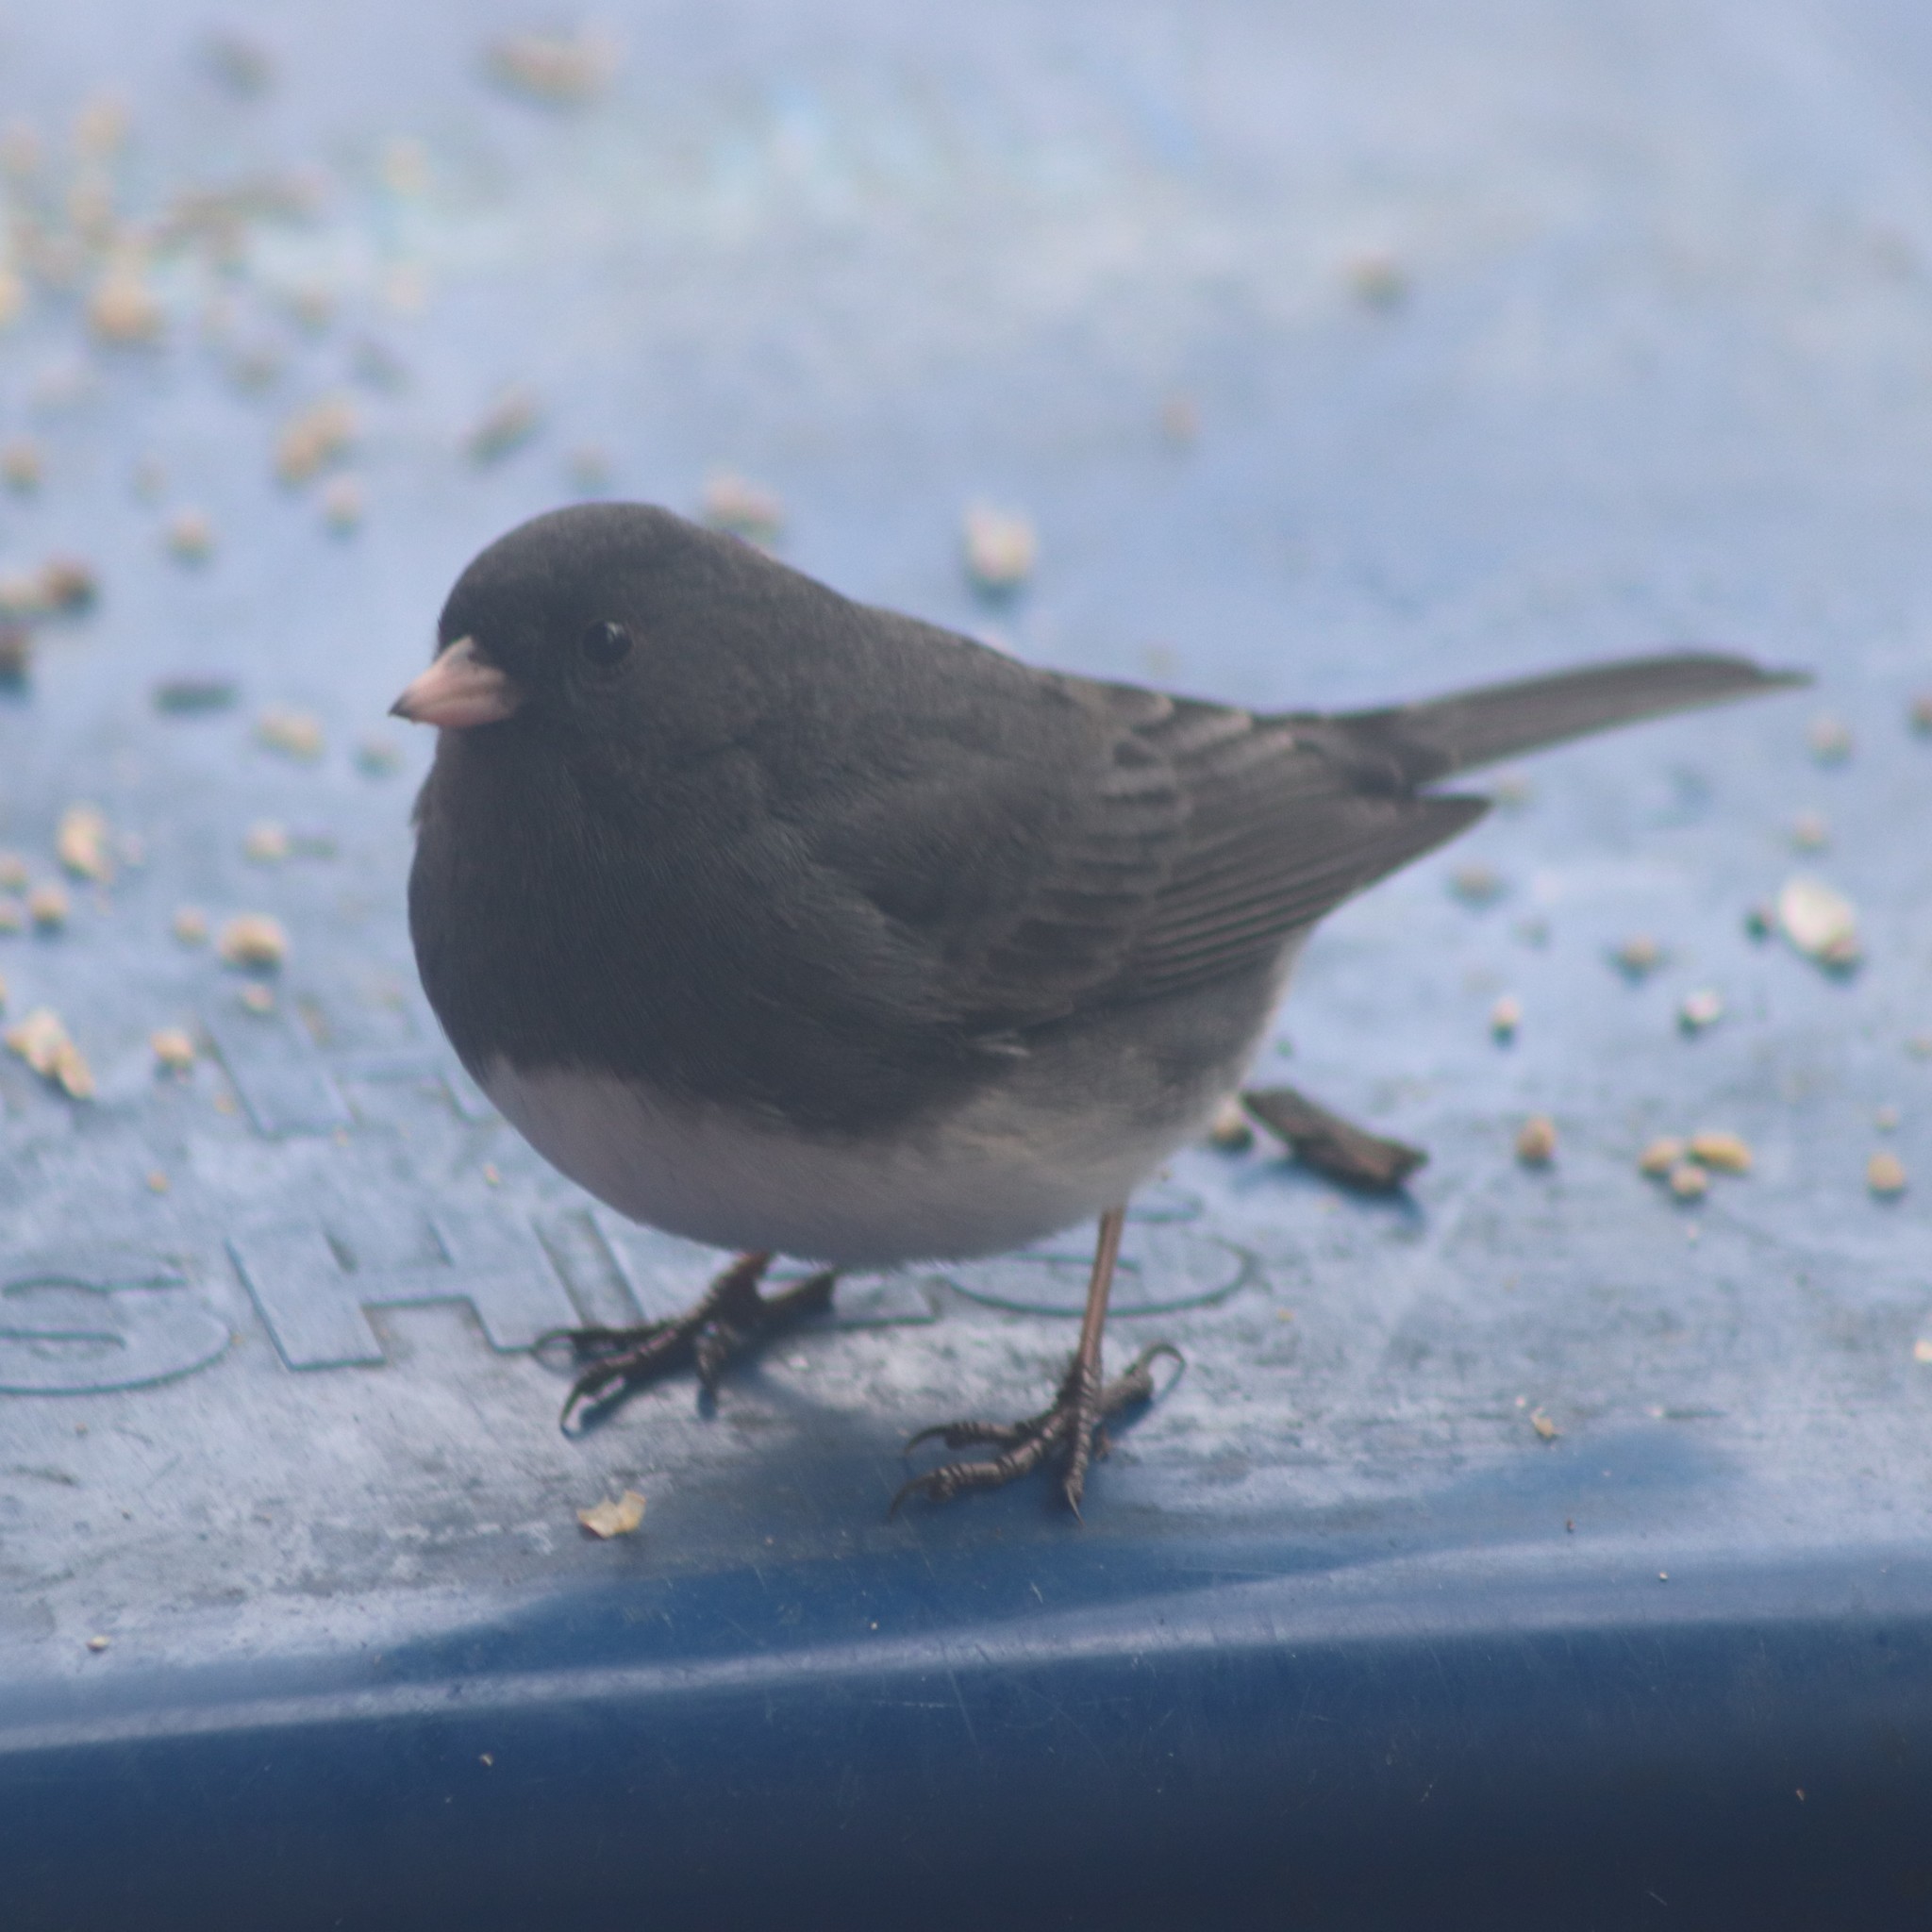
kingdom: Animalia
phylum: Chordata
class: Aves
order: Passeriformes
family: Passerellidae
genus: Junco
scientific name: Junco hyemalis
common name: Dark-eyed junco
